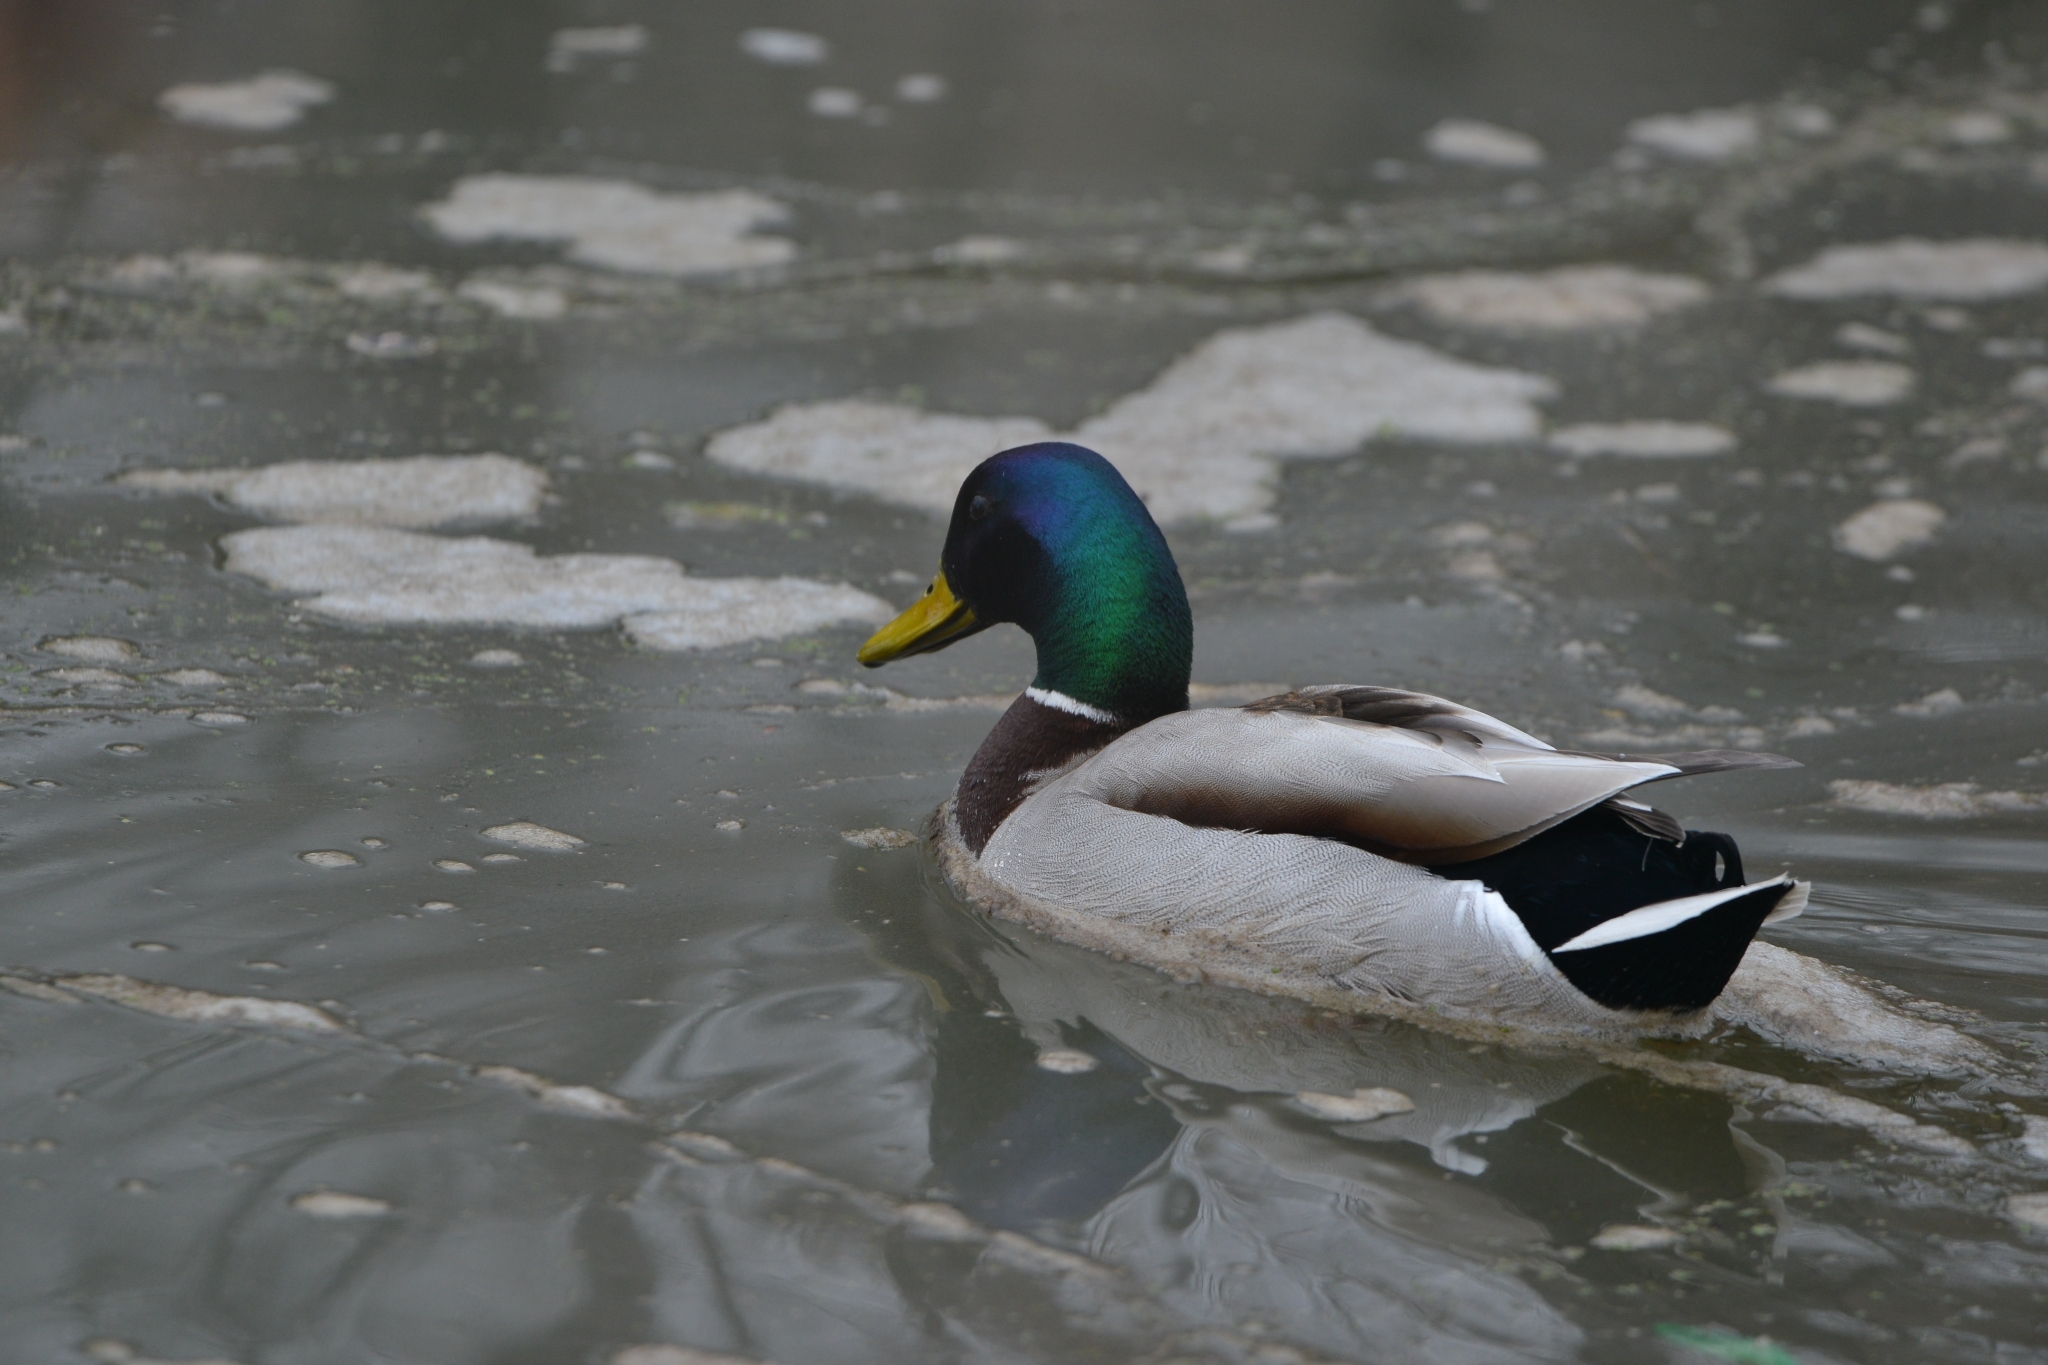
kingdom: Animalia
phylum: Chordata
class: Aves
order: Anseriformes
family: Anatidae
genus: Anas
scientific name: Anas platyrhynchos
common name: Mallard
